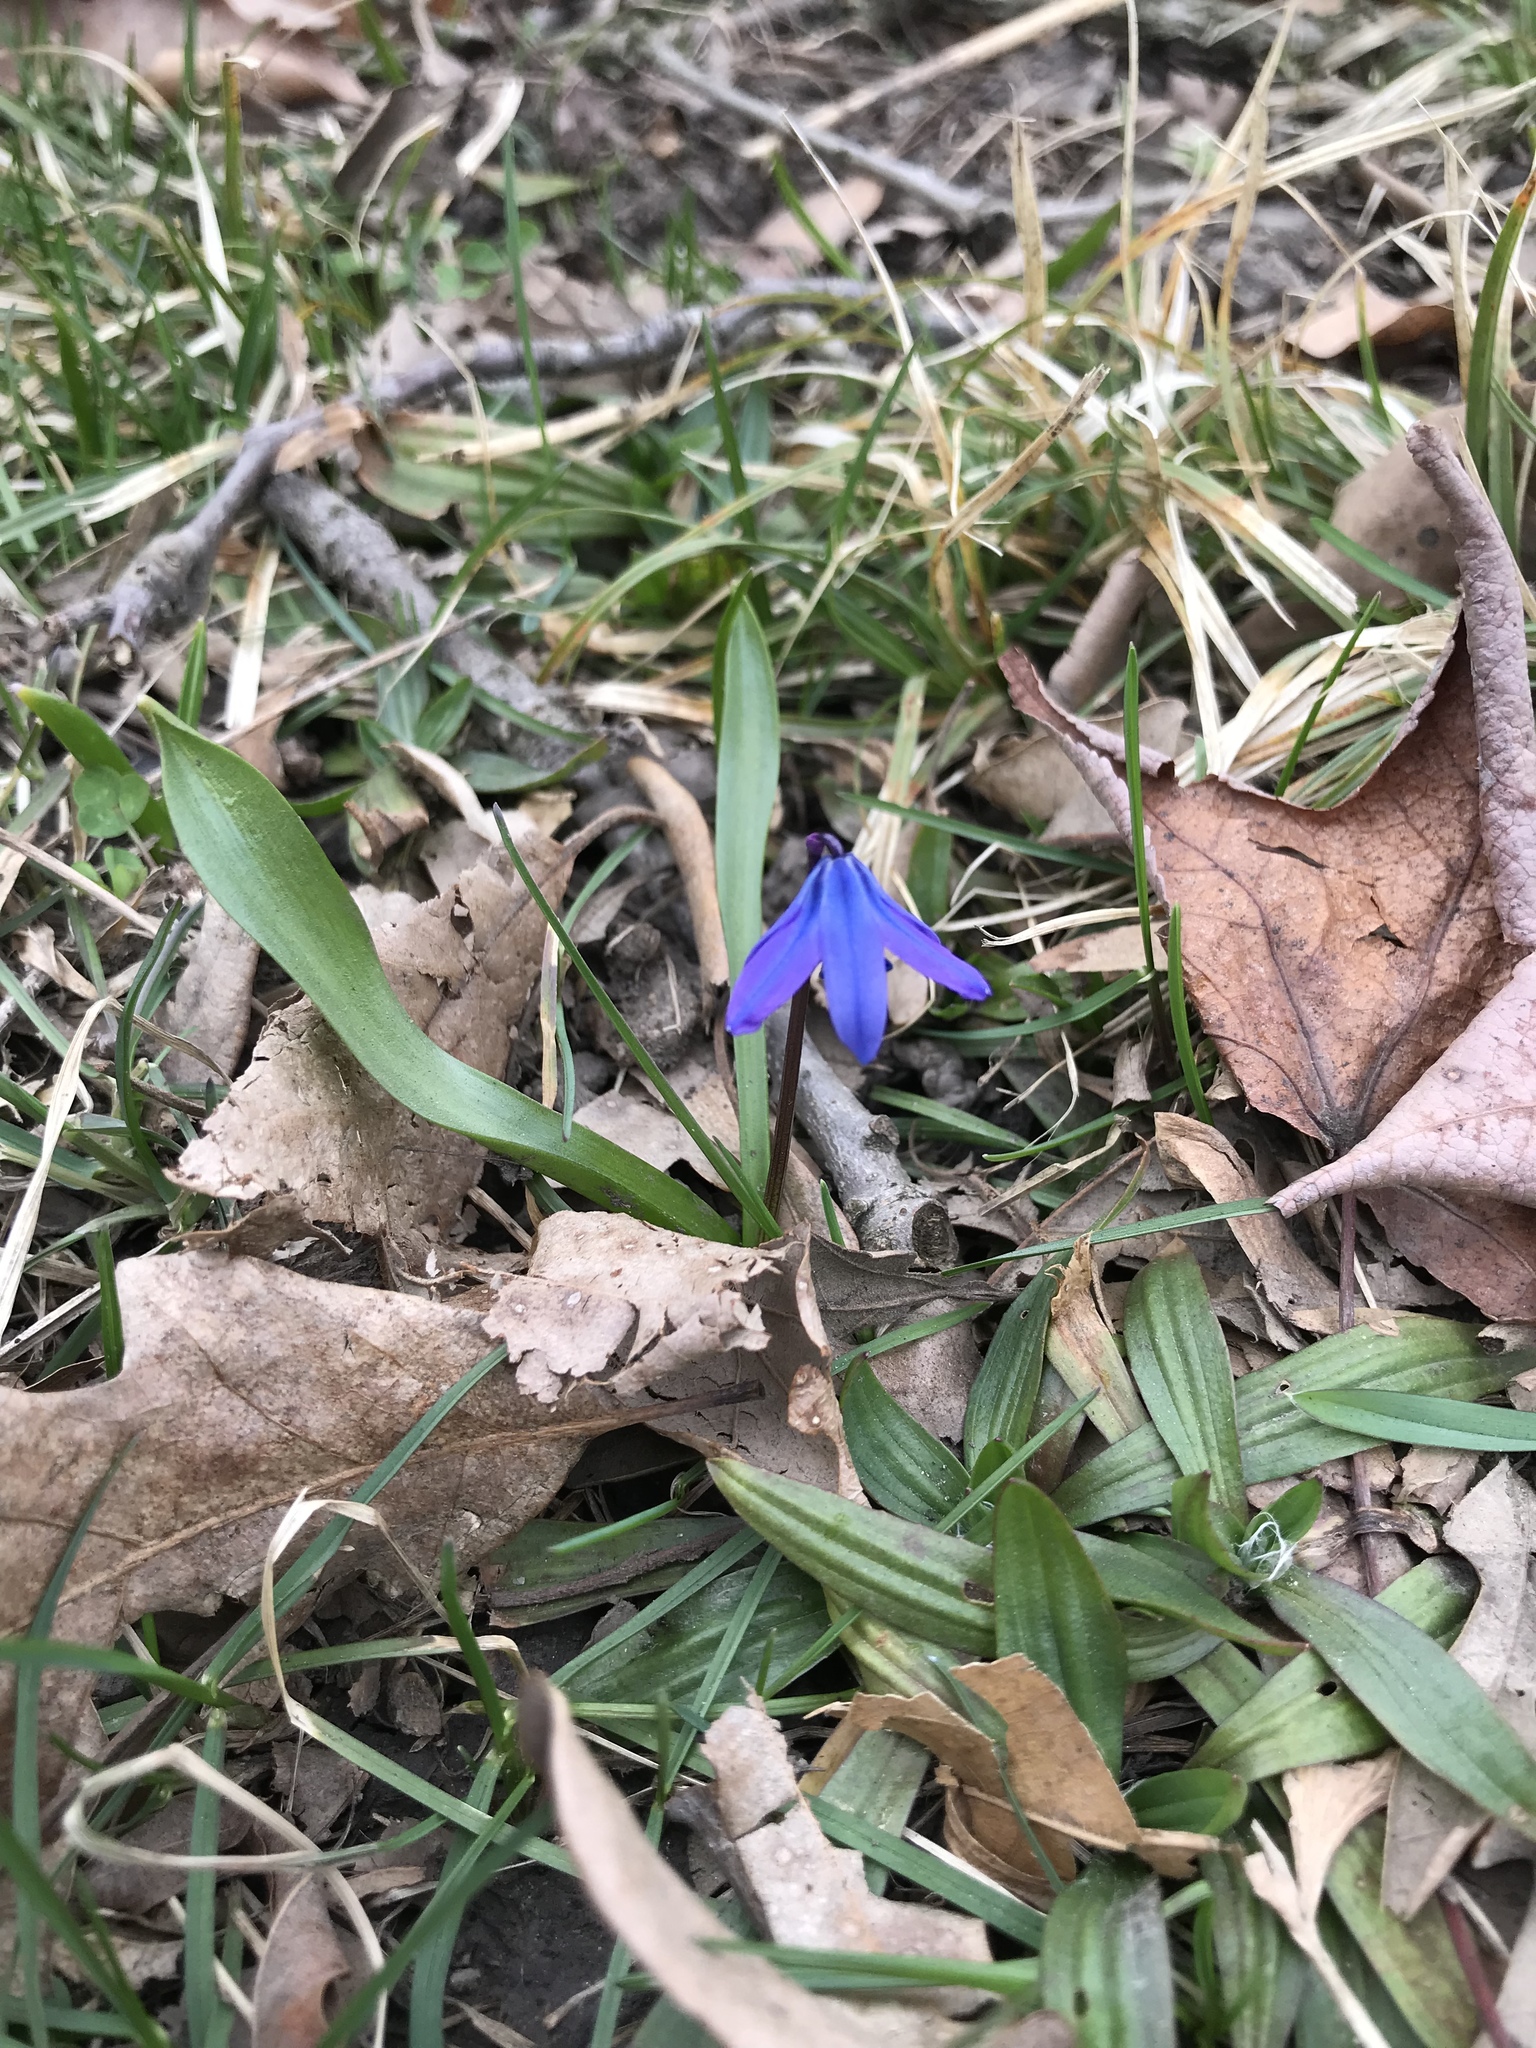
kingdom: Plantae
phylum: Tracheophyta
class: Liliopsida
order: Asparagales
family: Asparagaceae
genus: Scilla
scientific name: Scilla siberica
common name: Siberian squill
